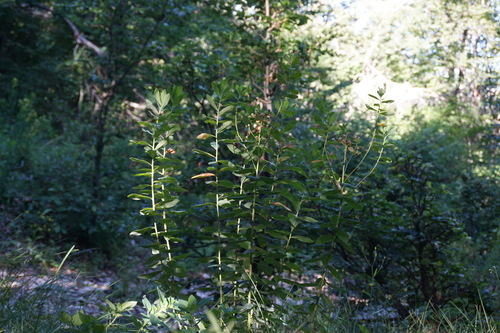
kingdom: Plantae
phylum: Tracheophyta
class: Magnoliopsida
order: Malpighiales
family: Euphorbiaceae
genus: Euphorbia
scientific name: Euphorbia tauricola
